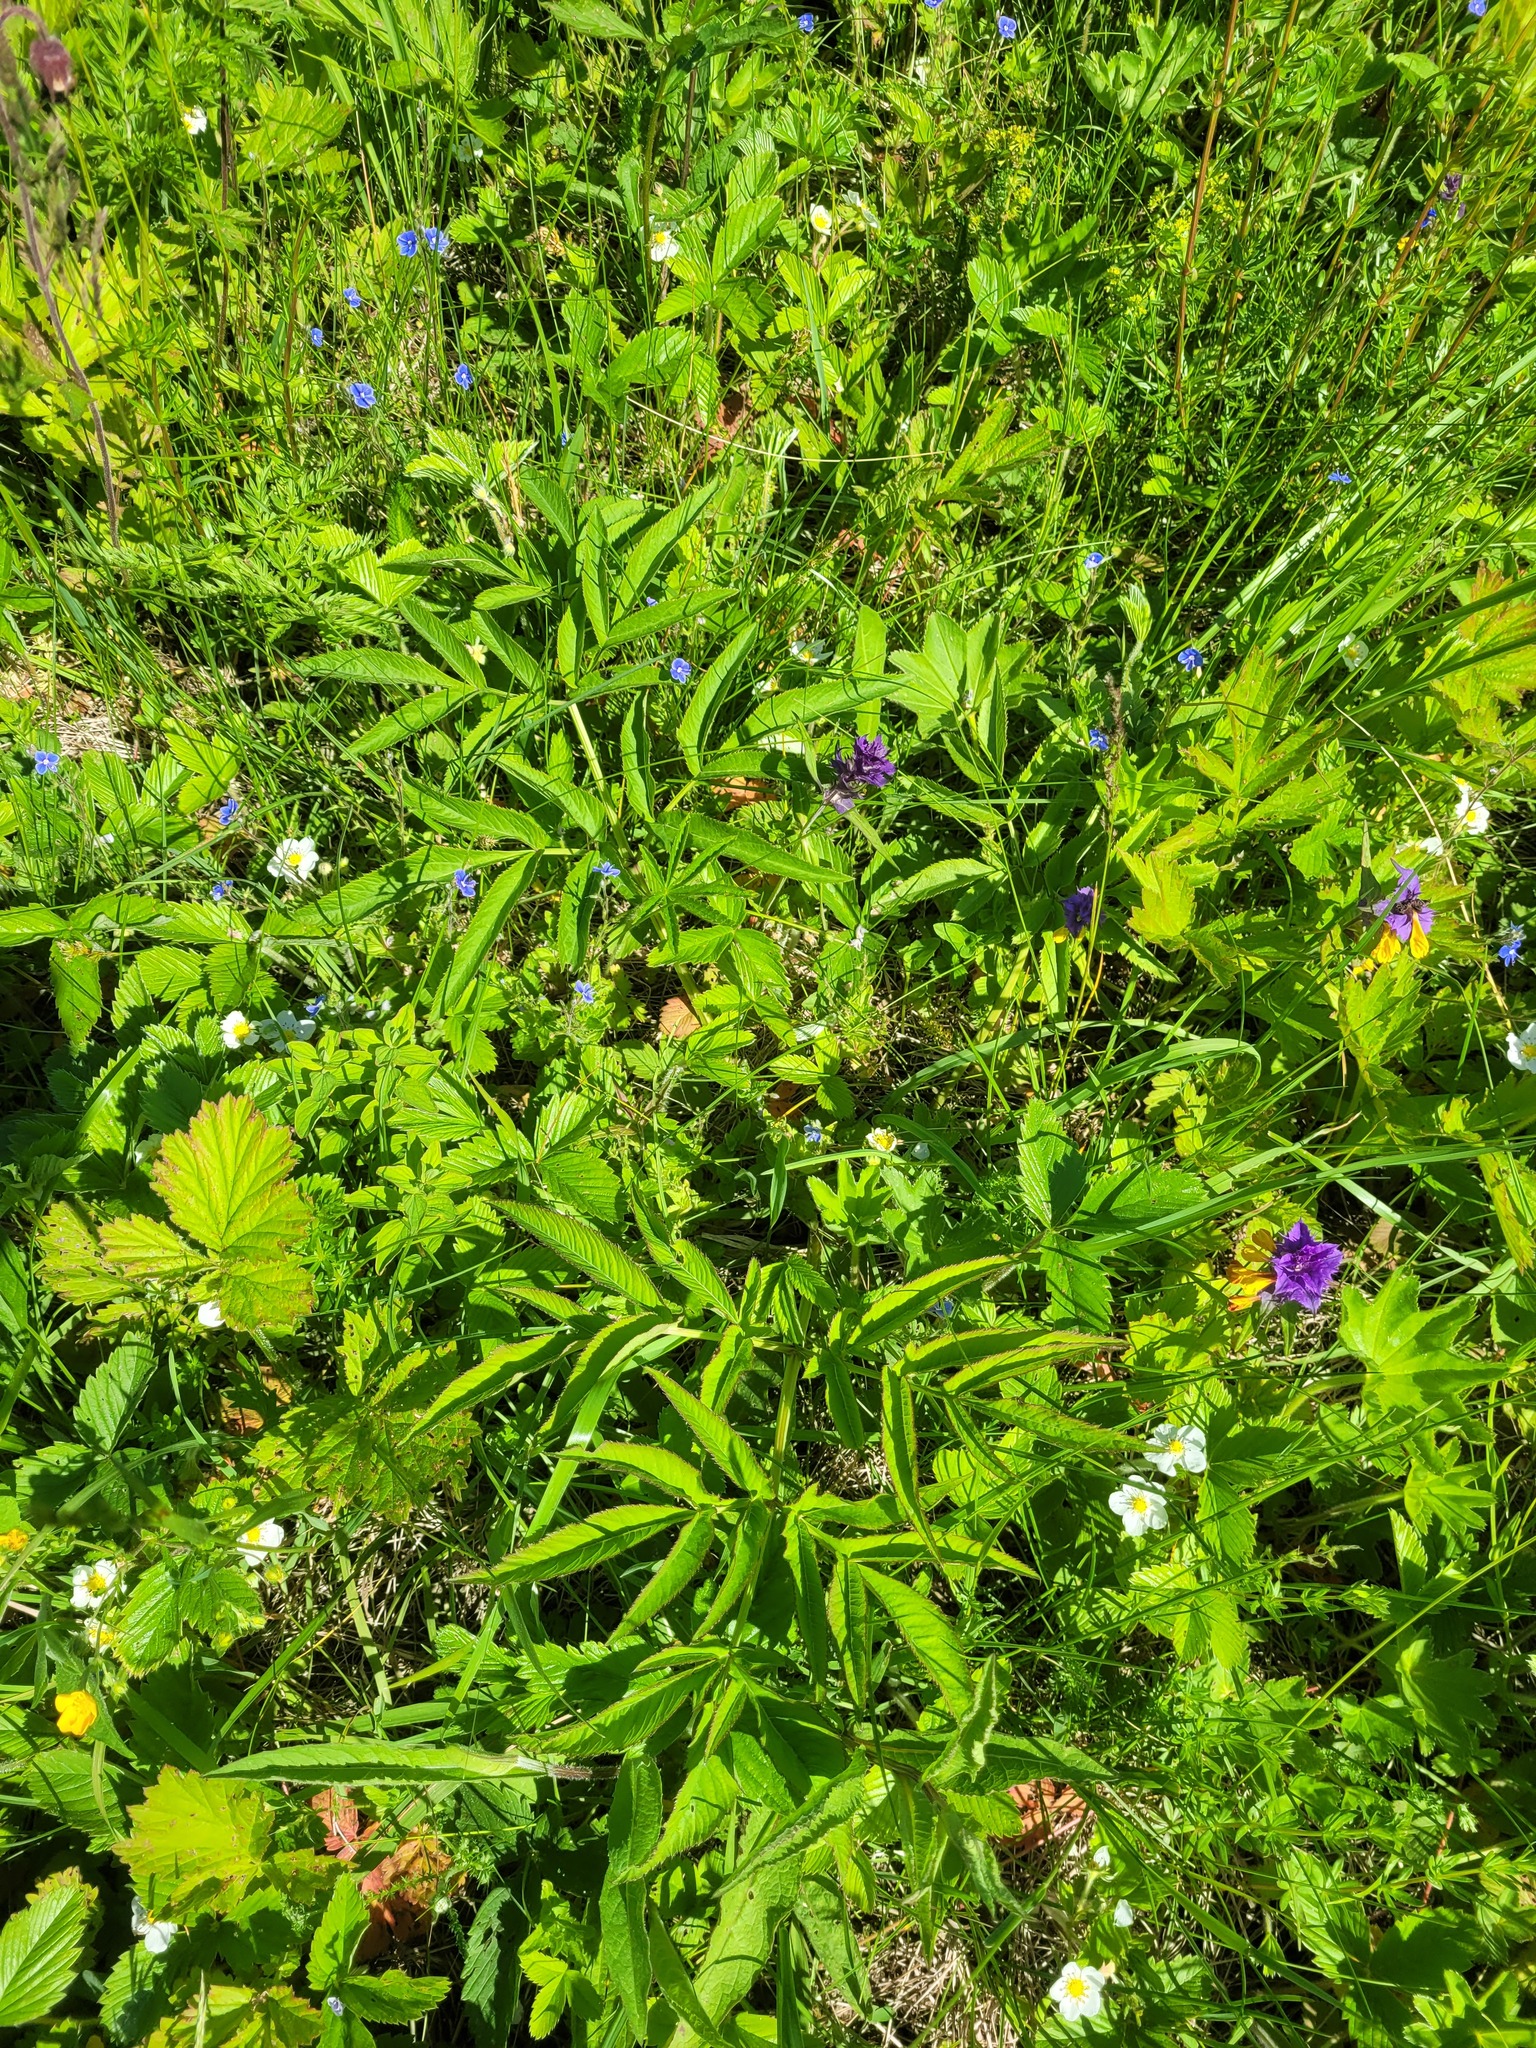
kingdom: Plantae
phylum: Tracheophyta
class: Magnoliopsida
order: Apiales
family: Apiaceae
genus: Angelica
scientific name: Angelica sylvestris
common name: Wild angelica
